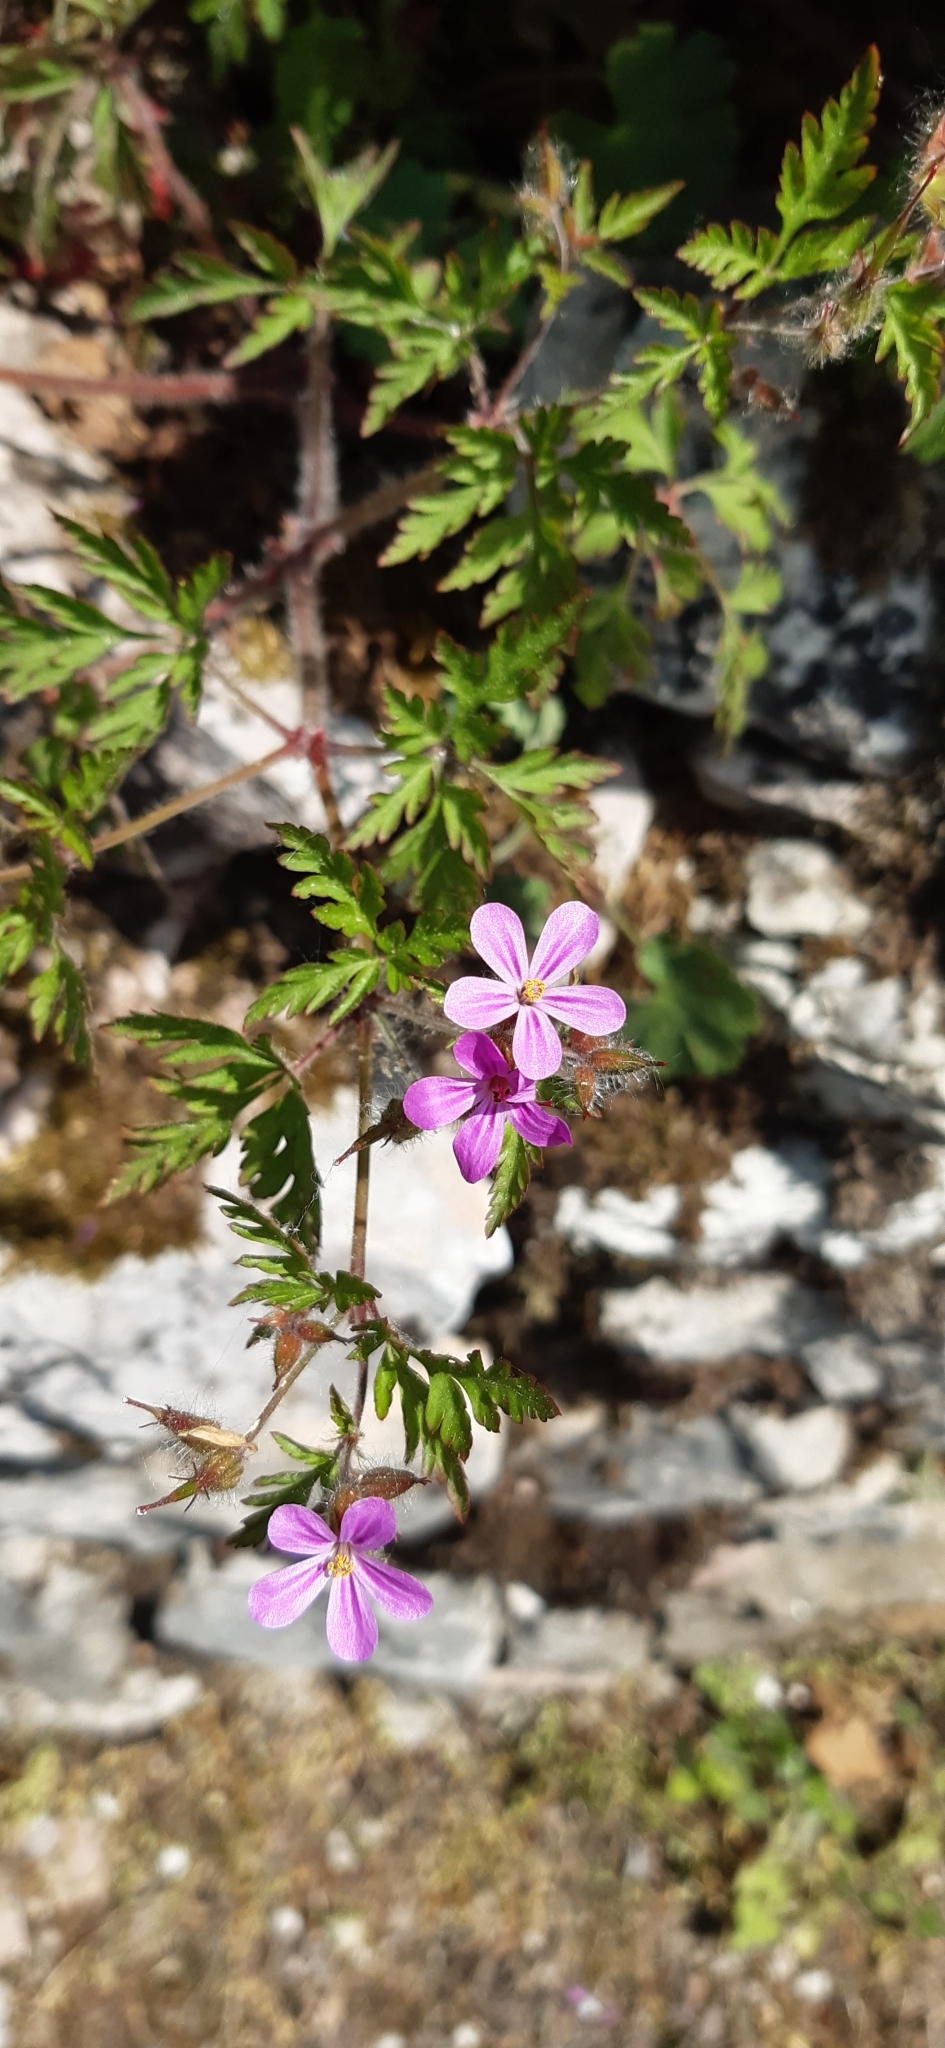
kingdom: Plantae
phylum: Tracheophyta
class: Magnoliopsida
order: Geraniales
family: Geraniaceae
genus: Geranium
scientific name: Geranium purpureum
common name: Little-robin
